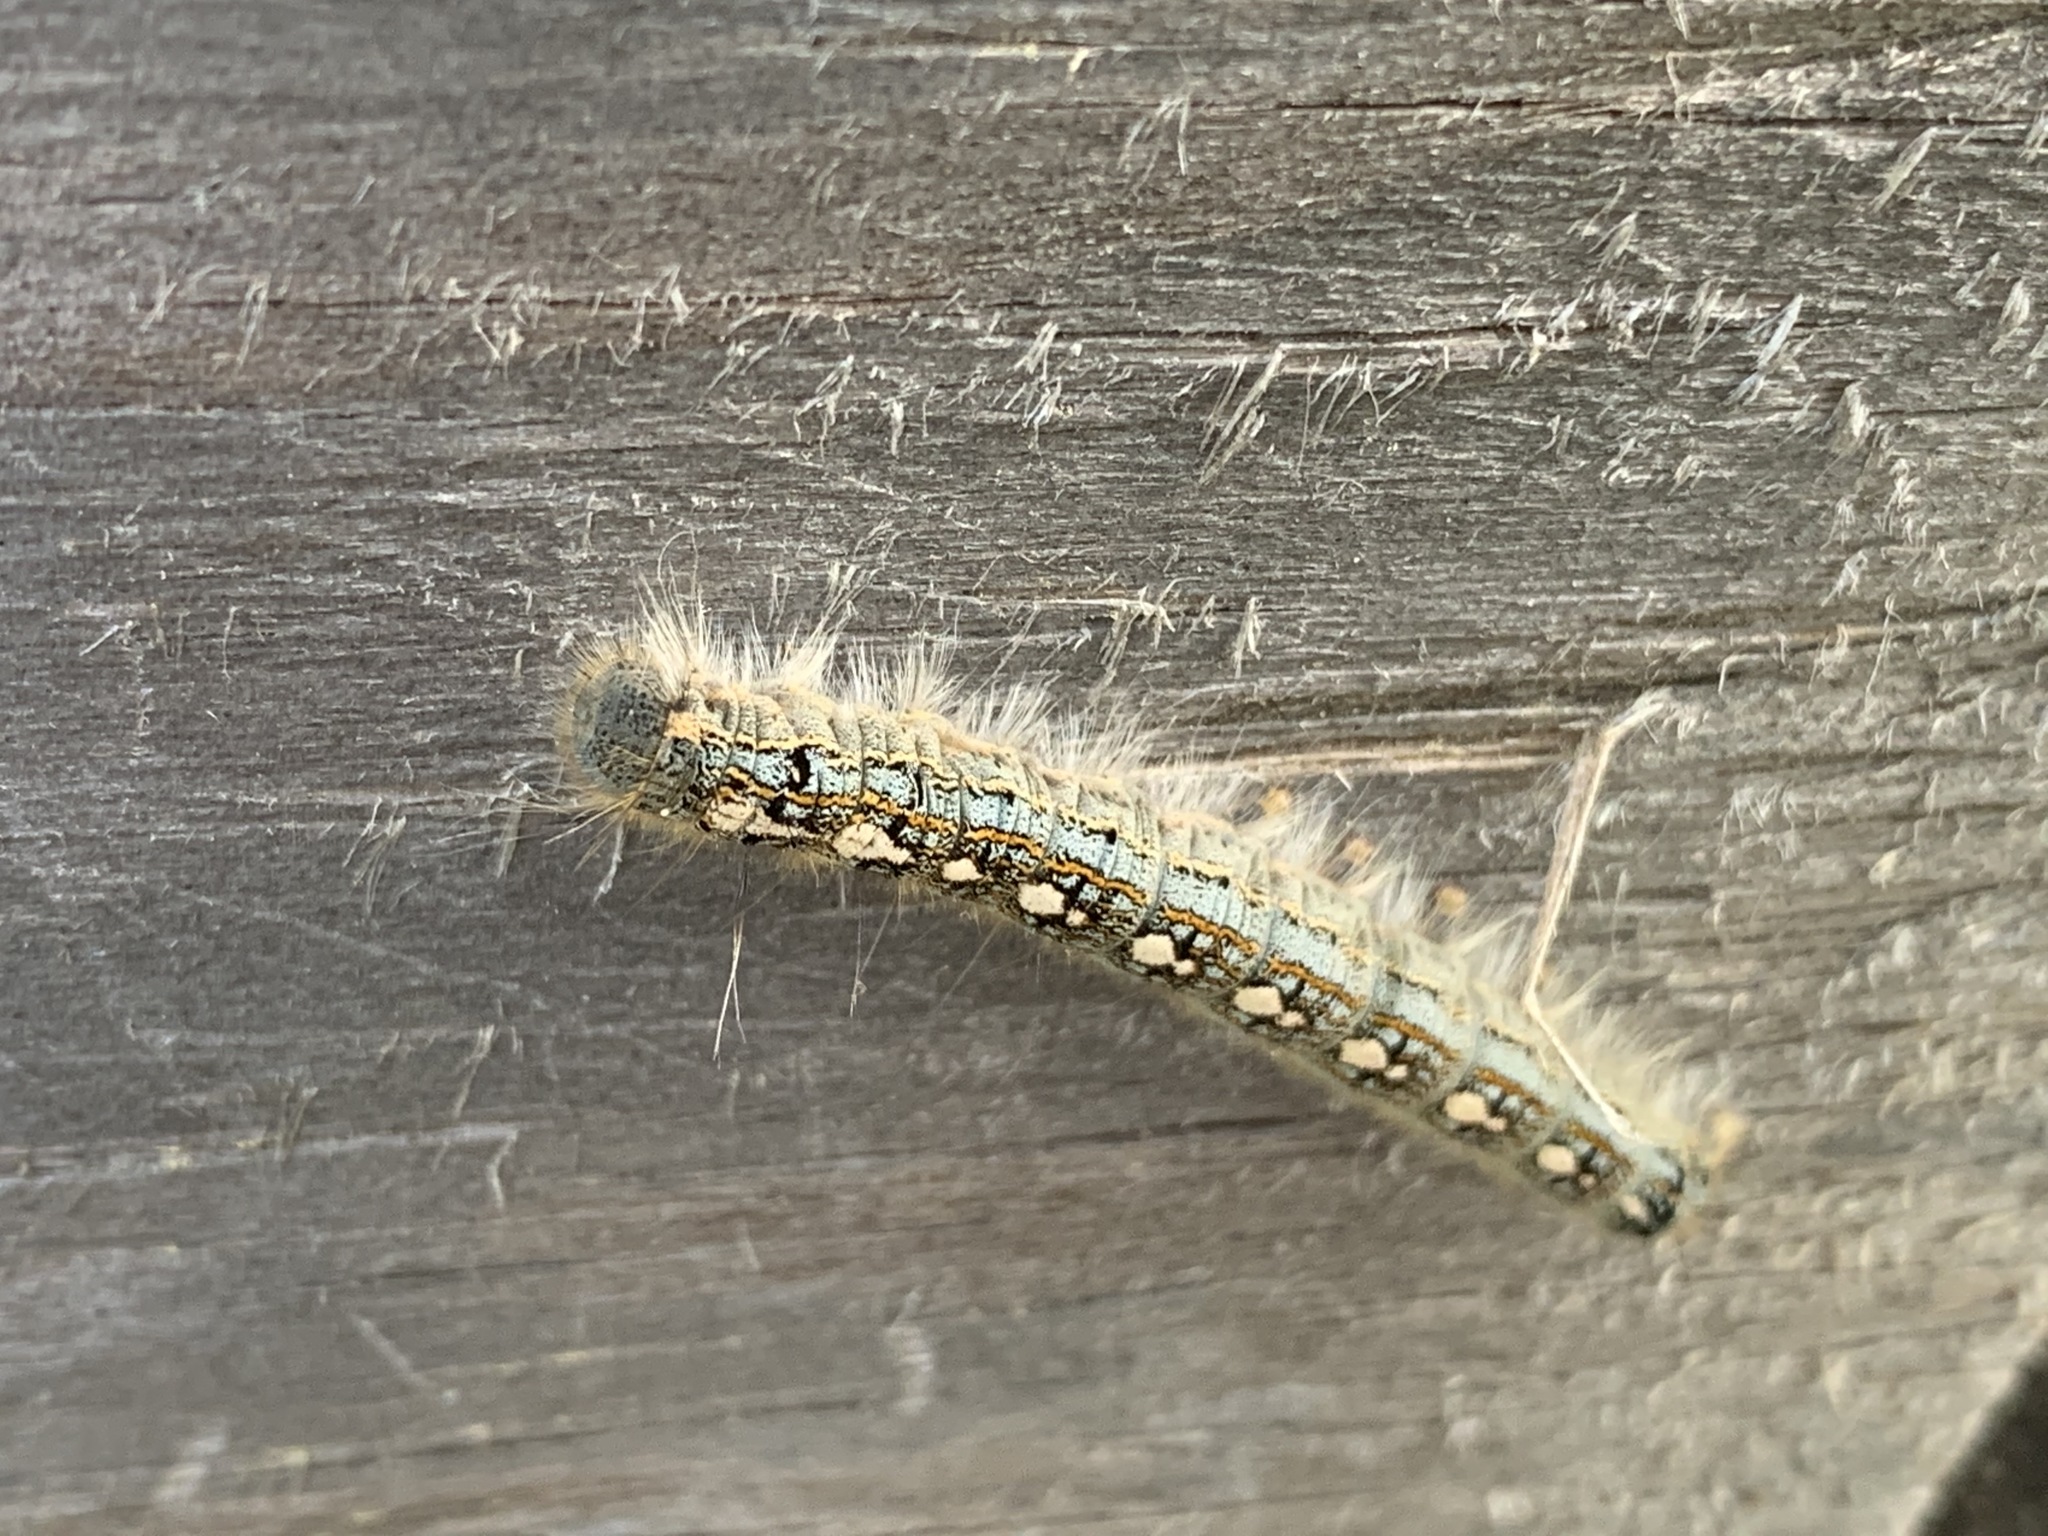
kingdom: Animalia
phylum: Arthropoda
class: Insecta
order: Lepidoptera
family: Lasiocampidae
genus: Malacosoma
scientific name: Malacosoma disstria
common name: Forest tent caterpillar
